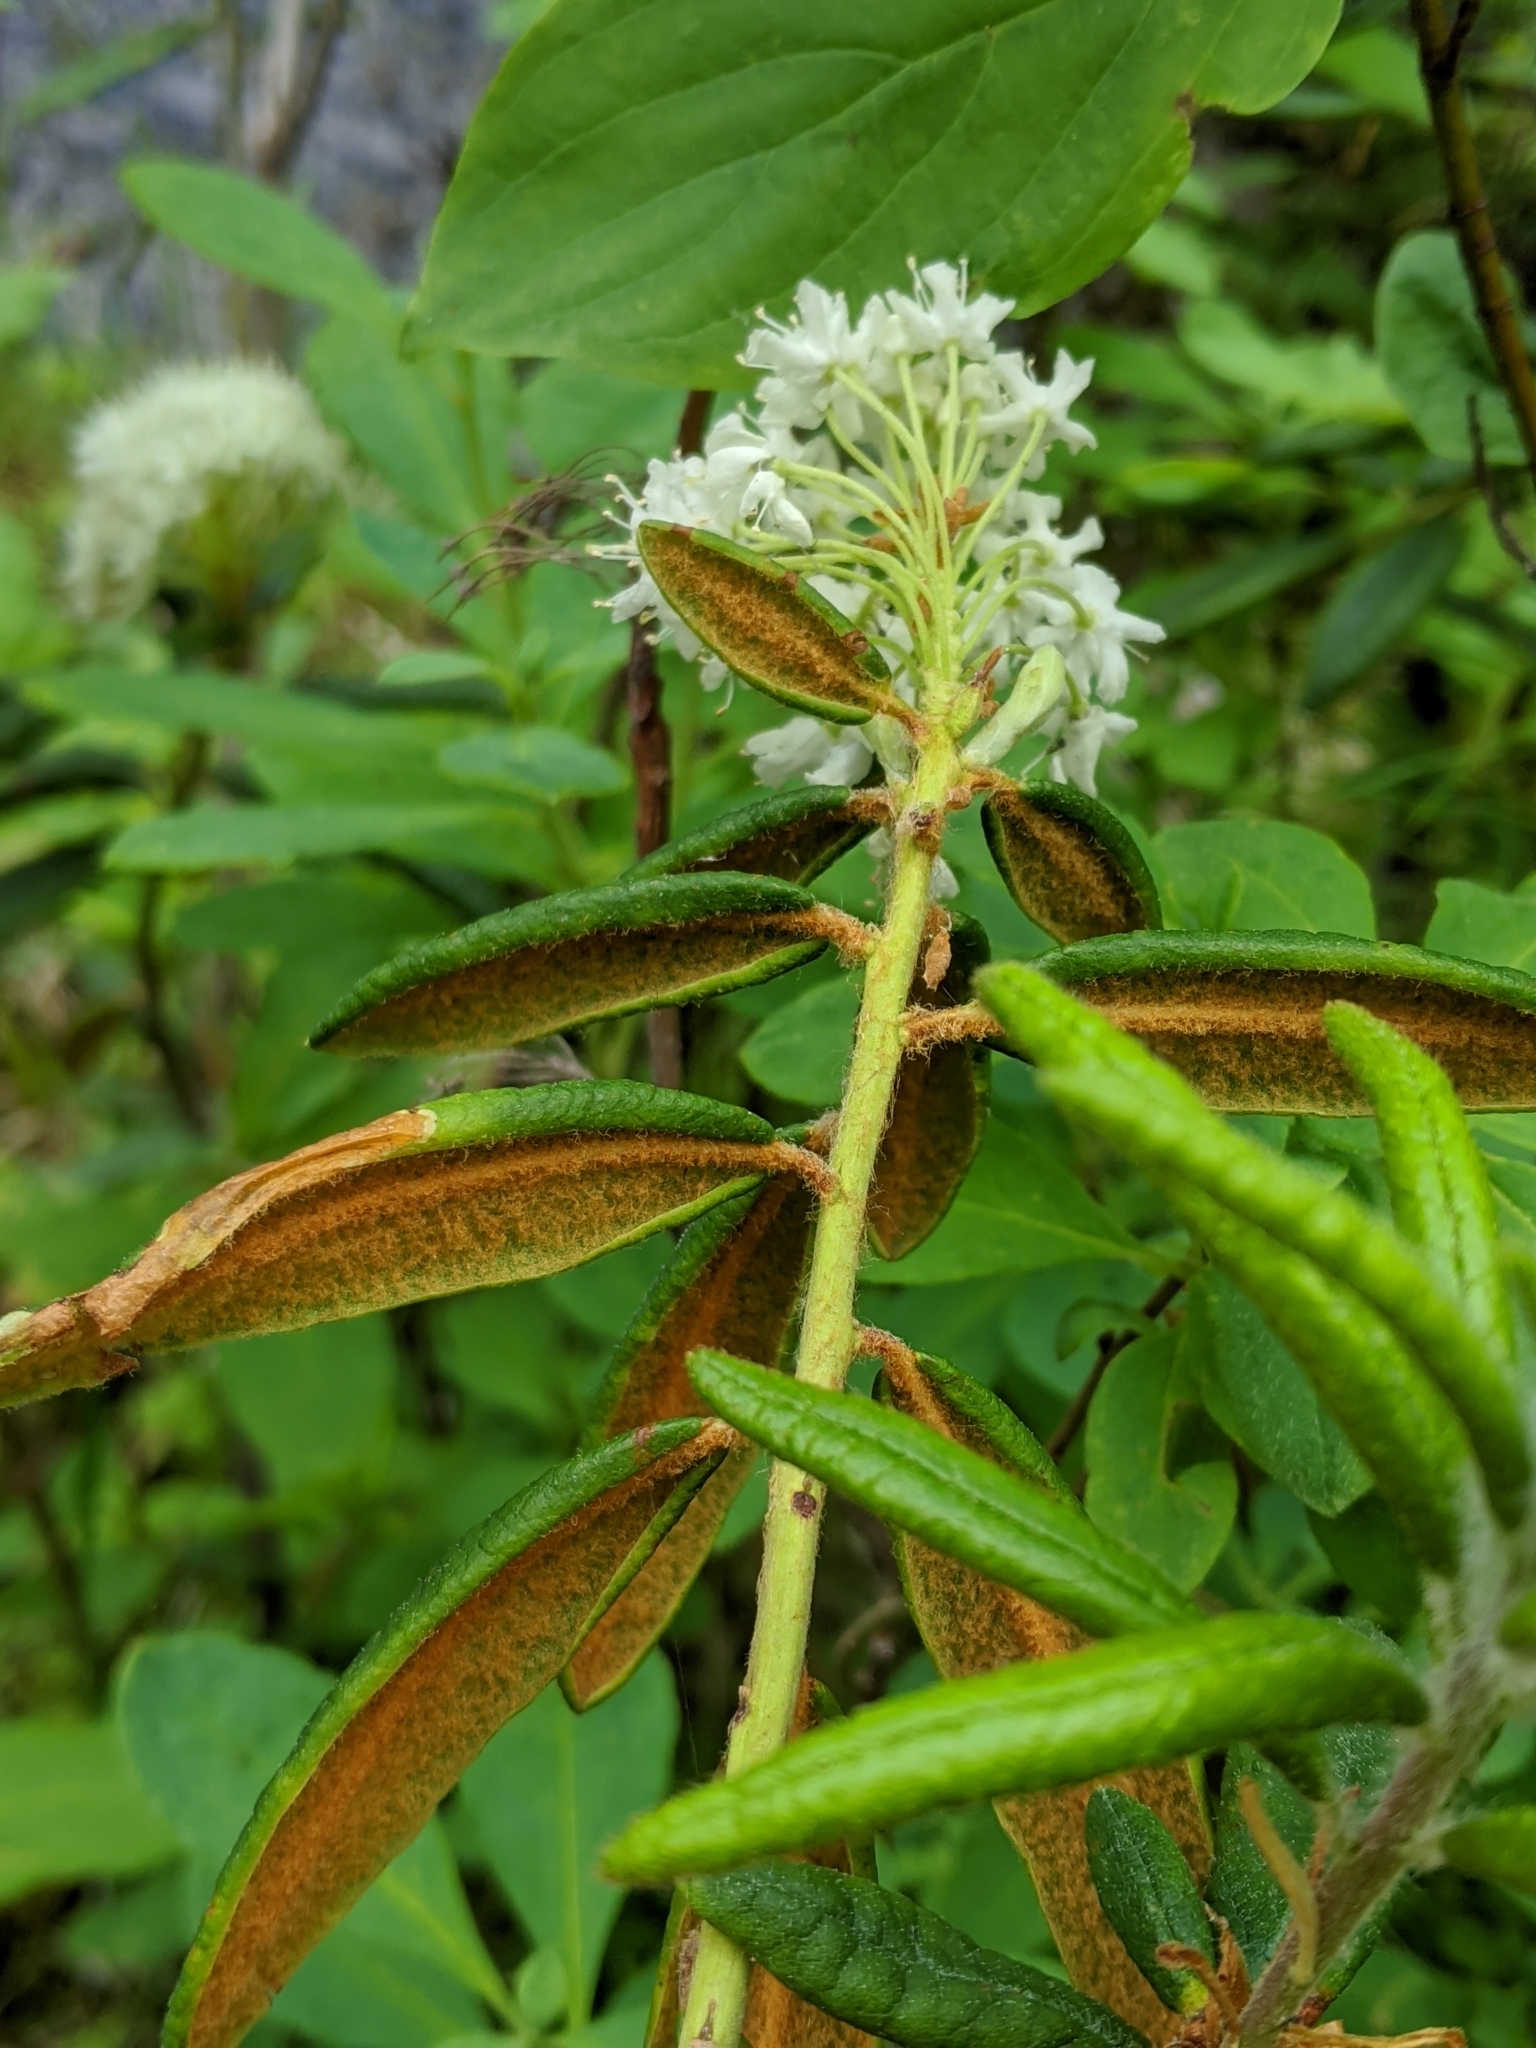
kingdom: Plantae
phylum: Tracheophyta
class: Magnoliopsida
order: Ericales
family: Ericaceae
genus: Rhododendron
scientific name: Rhododendron groenlandicum
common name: Bog labrador tea
